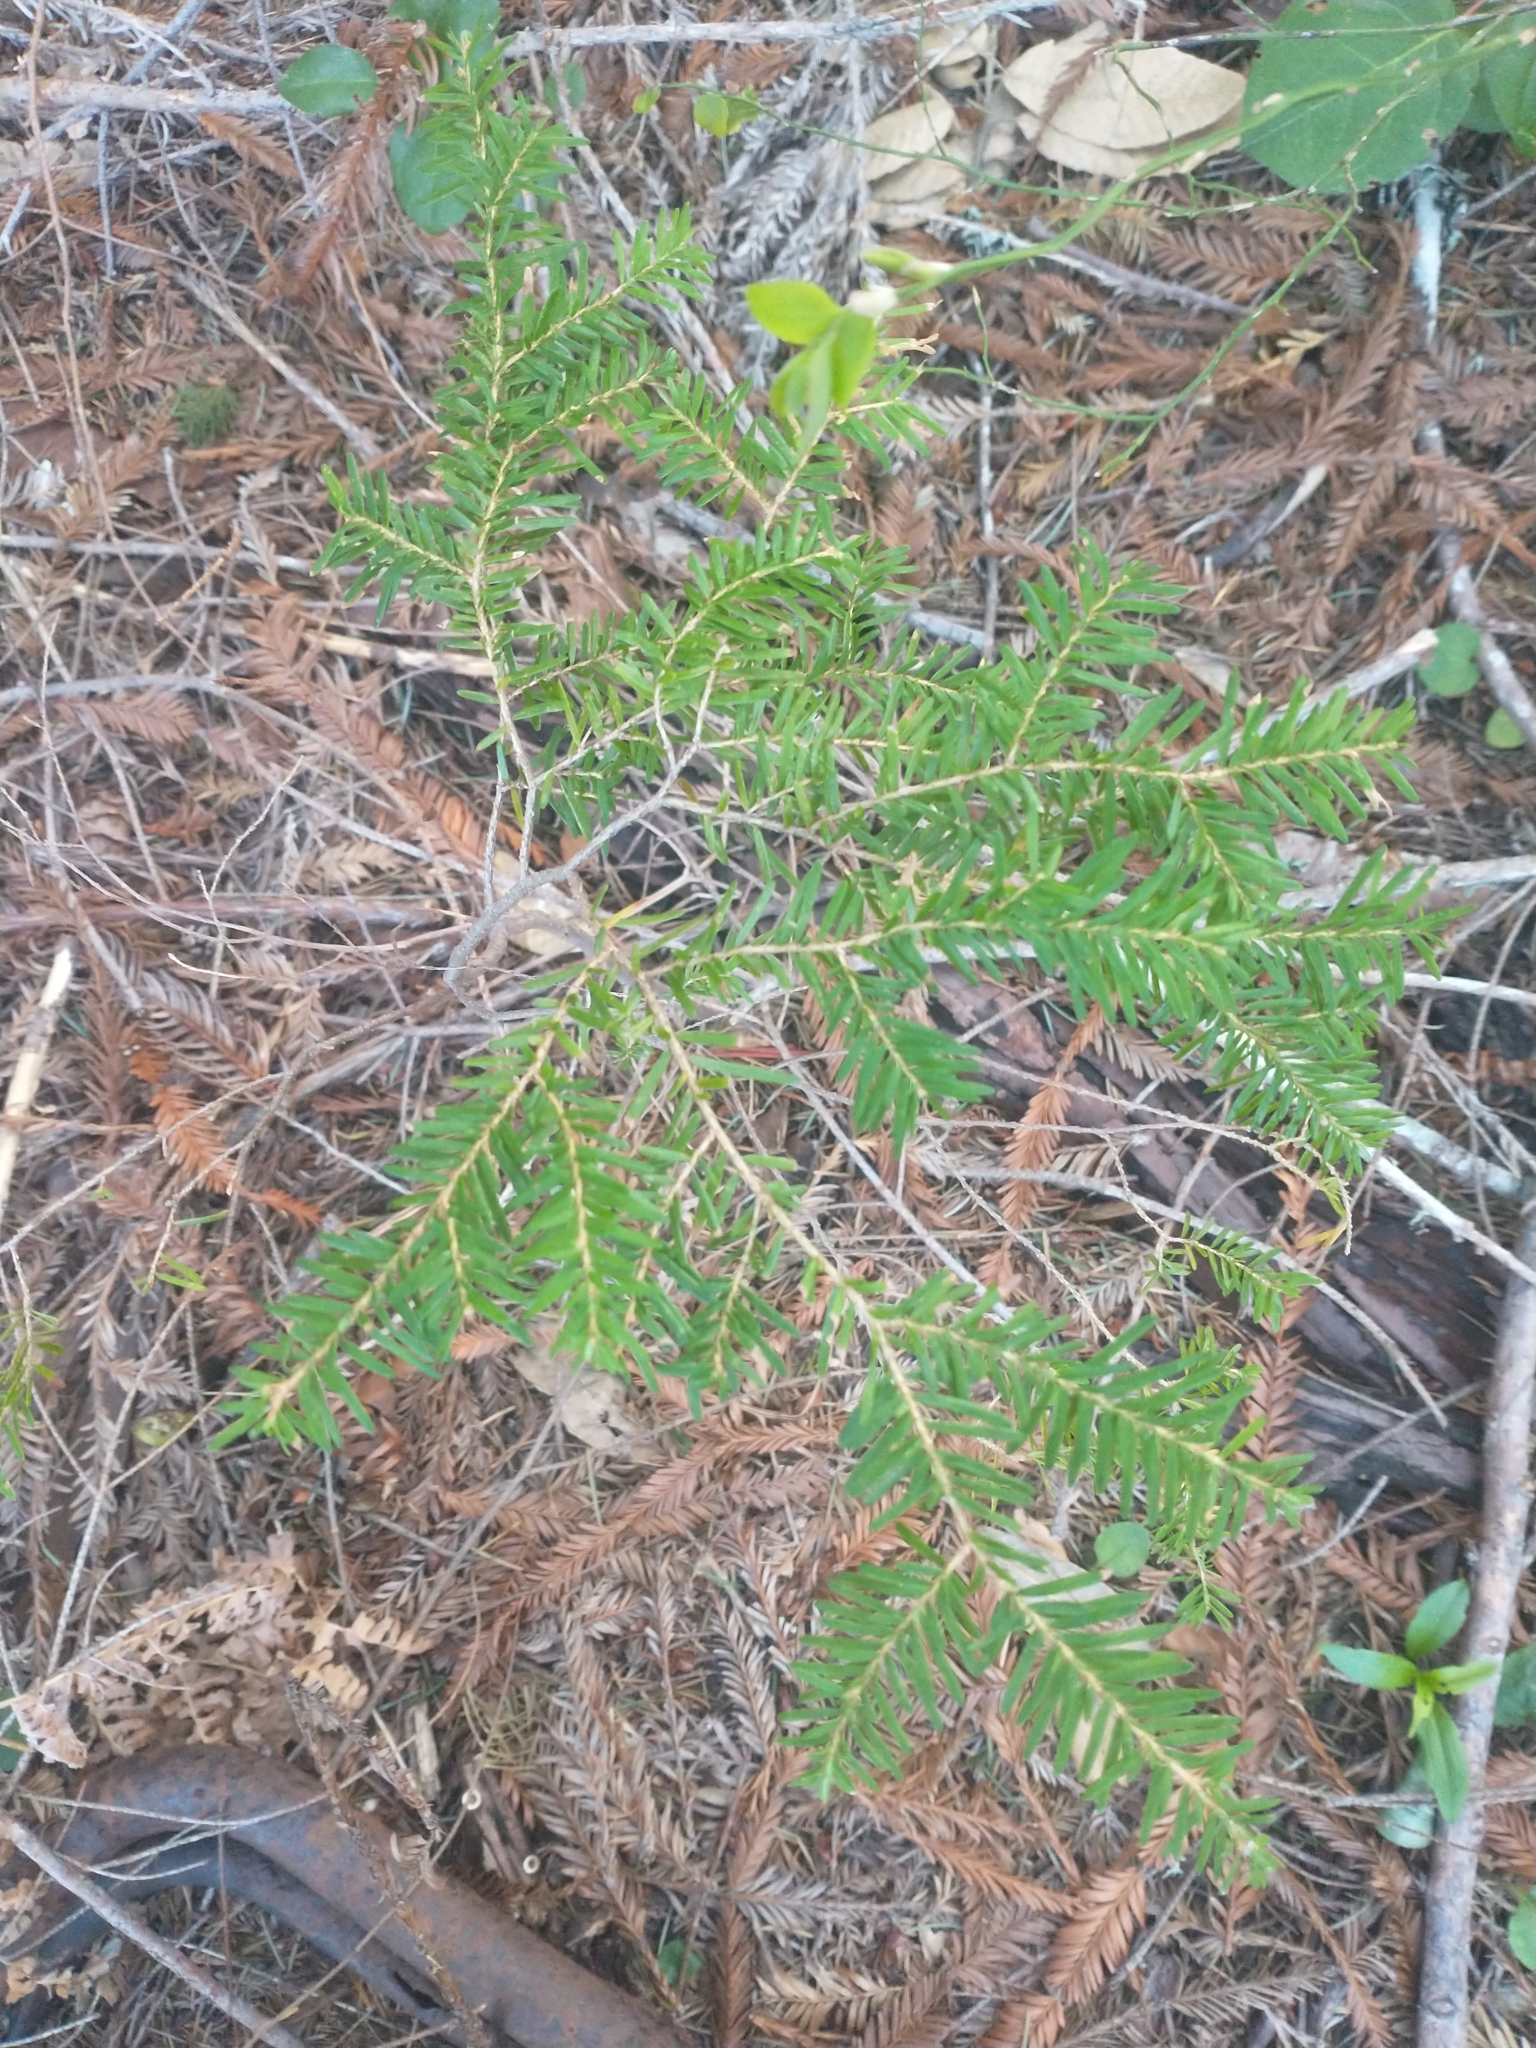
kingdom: Plantae
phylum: Tracheophyta
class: Pinopsida
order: Pinales
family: Pinaceae
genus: Tsuga
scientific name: Tsuga heterophylla
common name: Western hemlock
